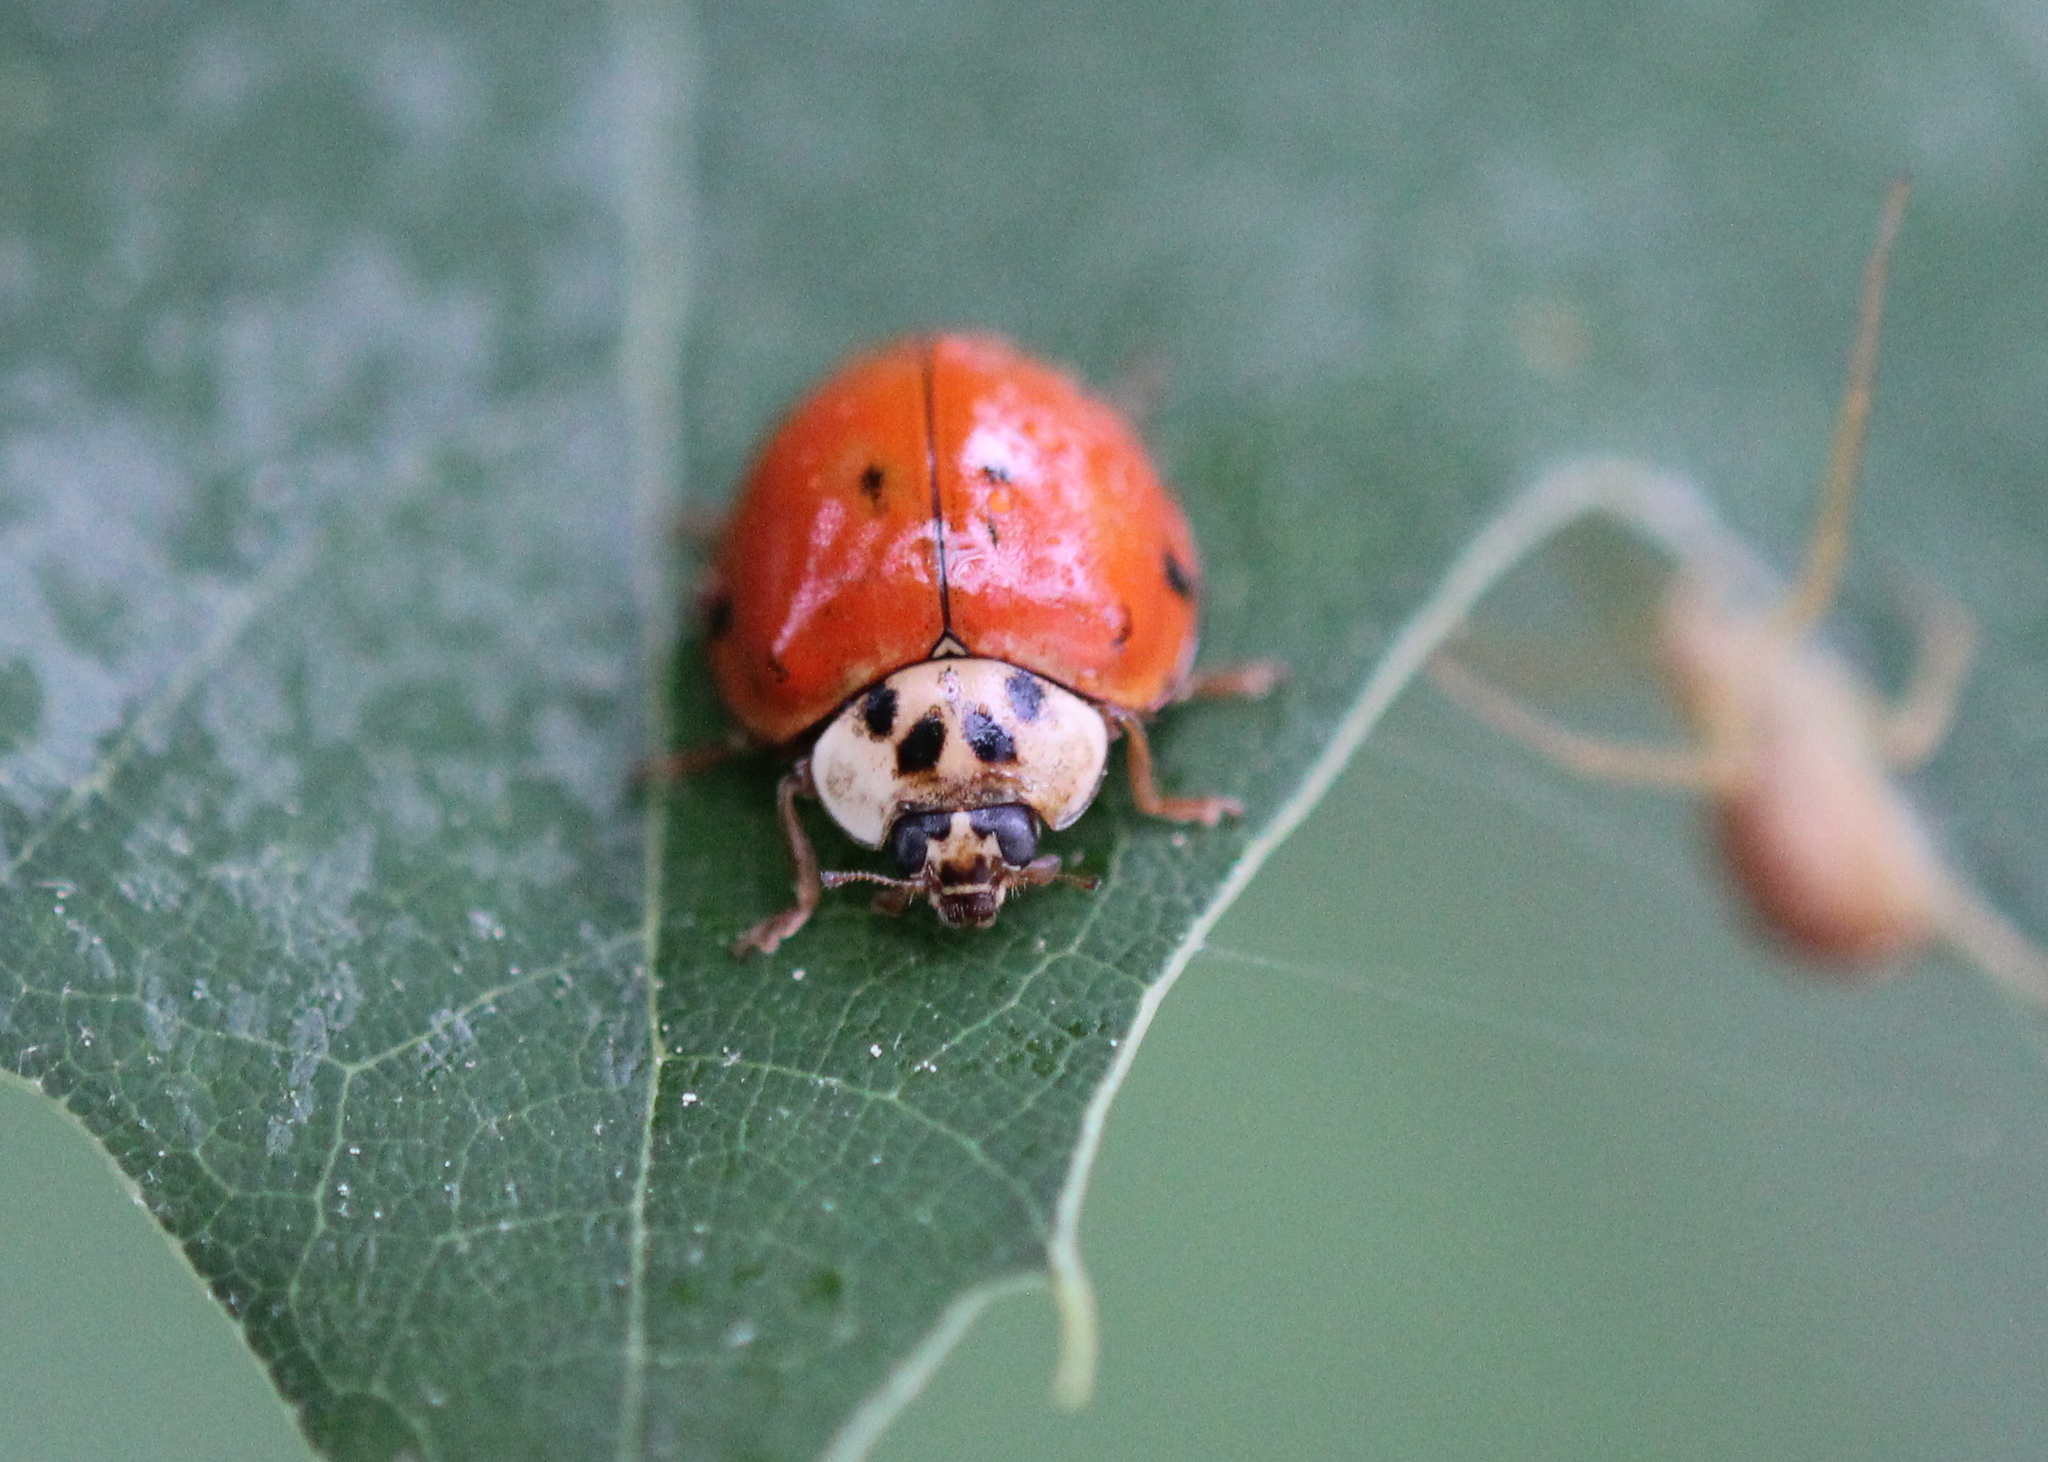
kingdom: Animalia
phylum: Arthropoda
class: Insecta
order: Coleoptera
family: Coccinellidae
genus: Harmonia
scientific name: Harmonia axyridis
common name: Harlequin ladybird
